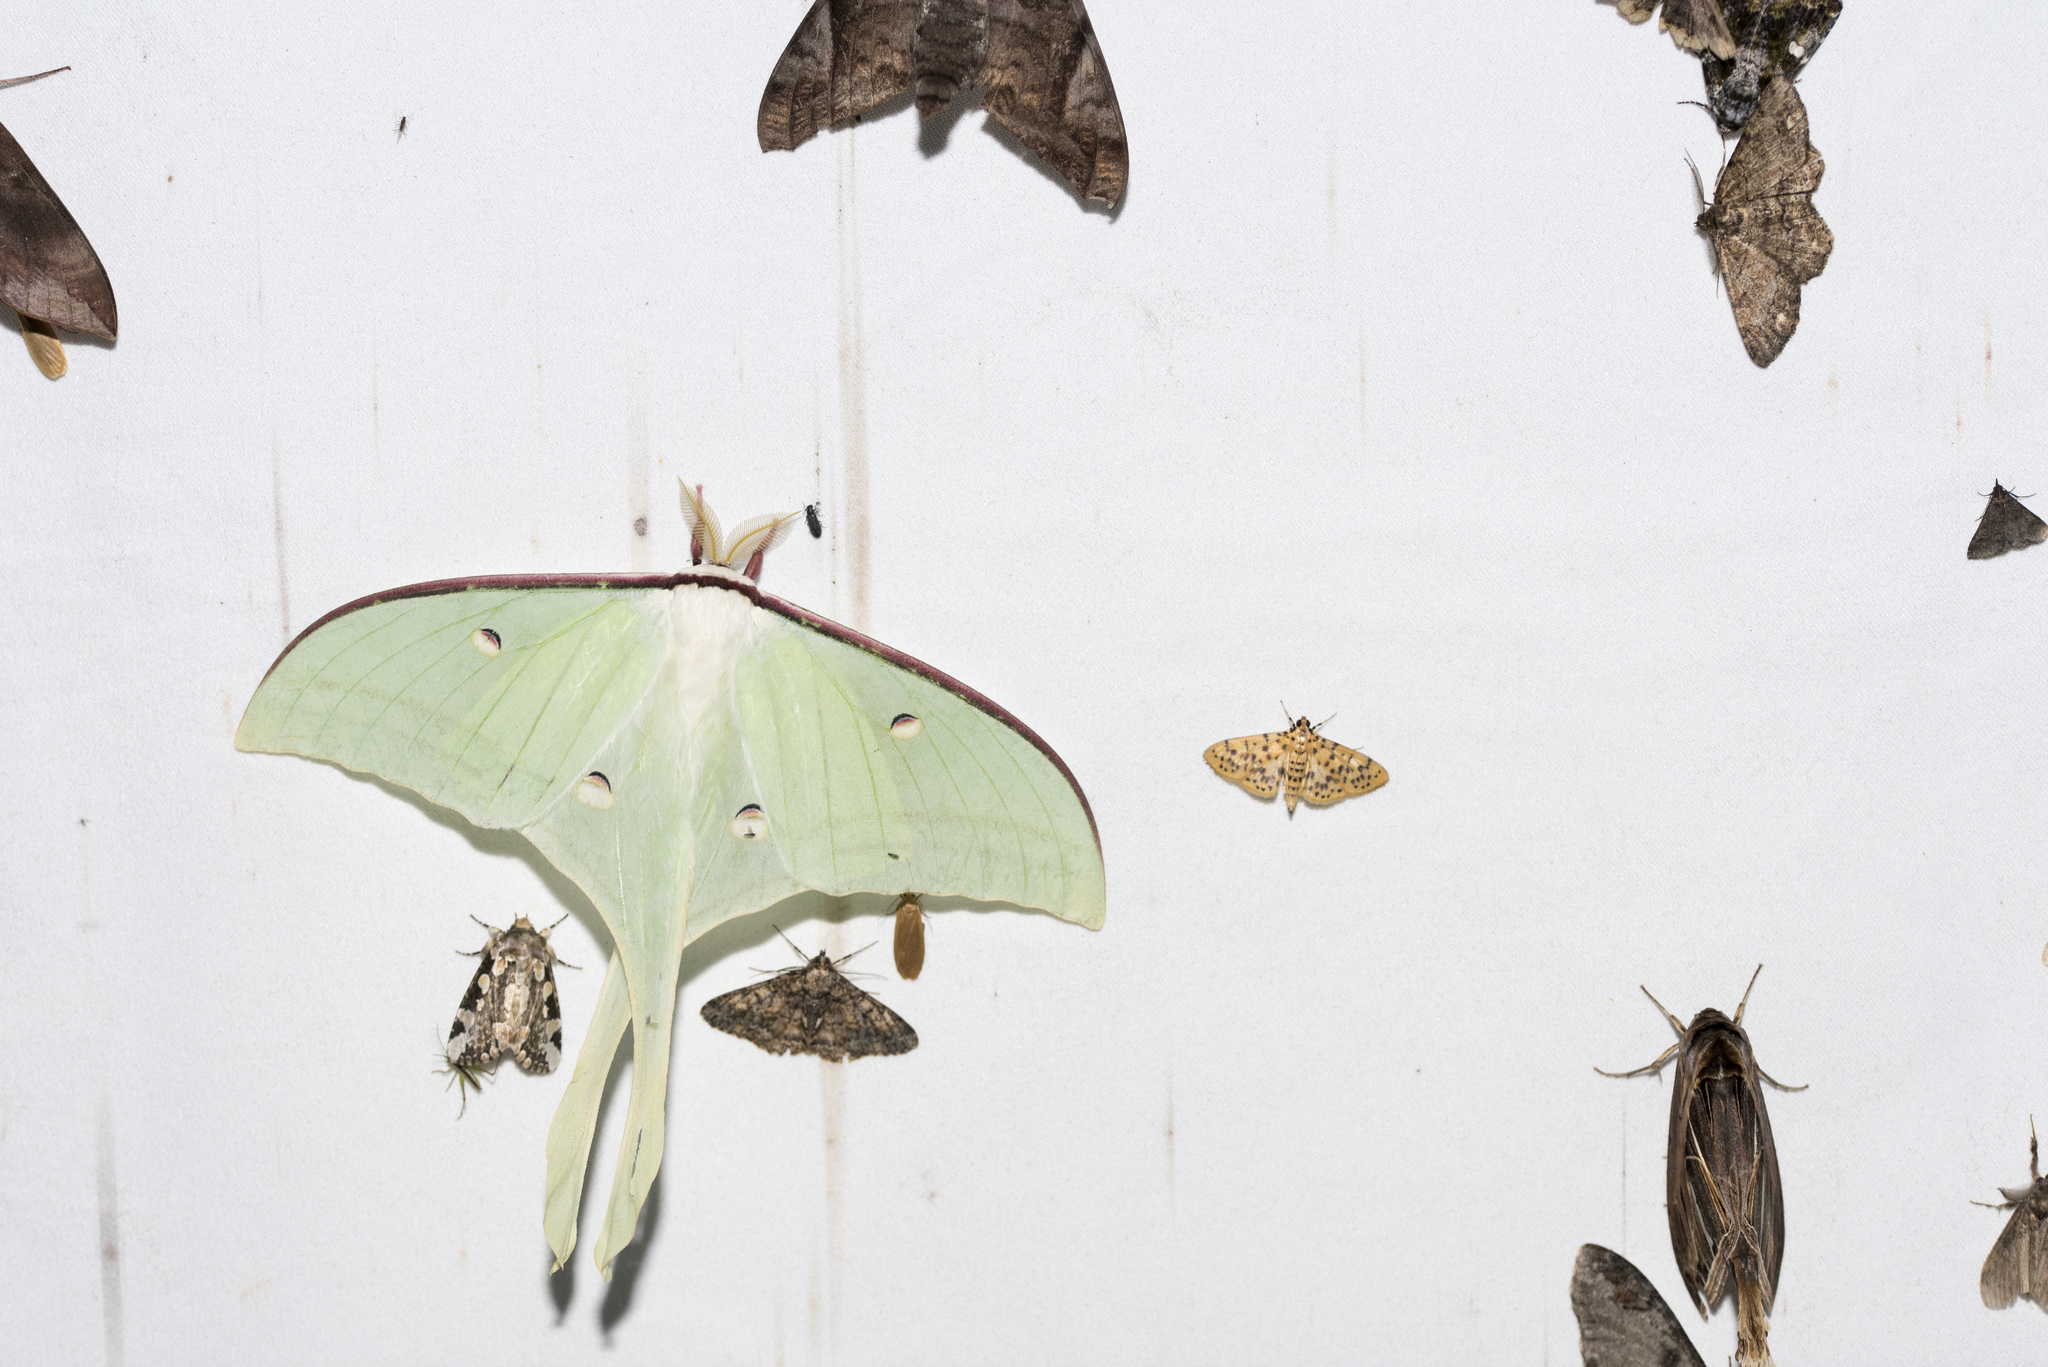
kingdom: Animalia
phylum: Arthropoda
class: Insecta
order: Lepidoptera
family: Saturniidae
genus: Actias
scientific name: Actias ningpoana
